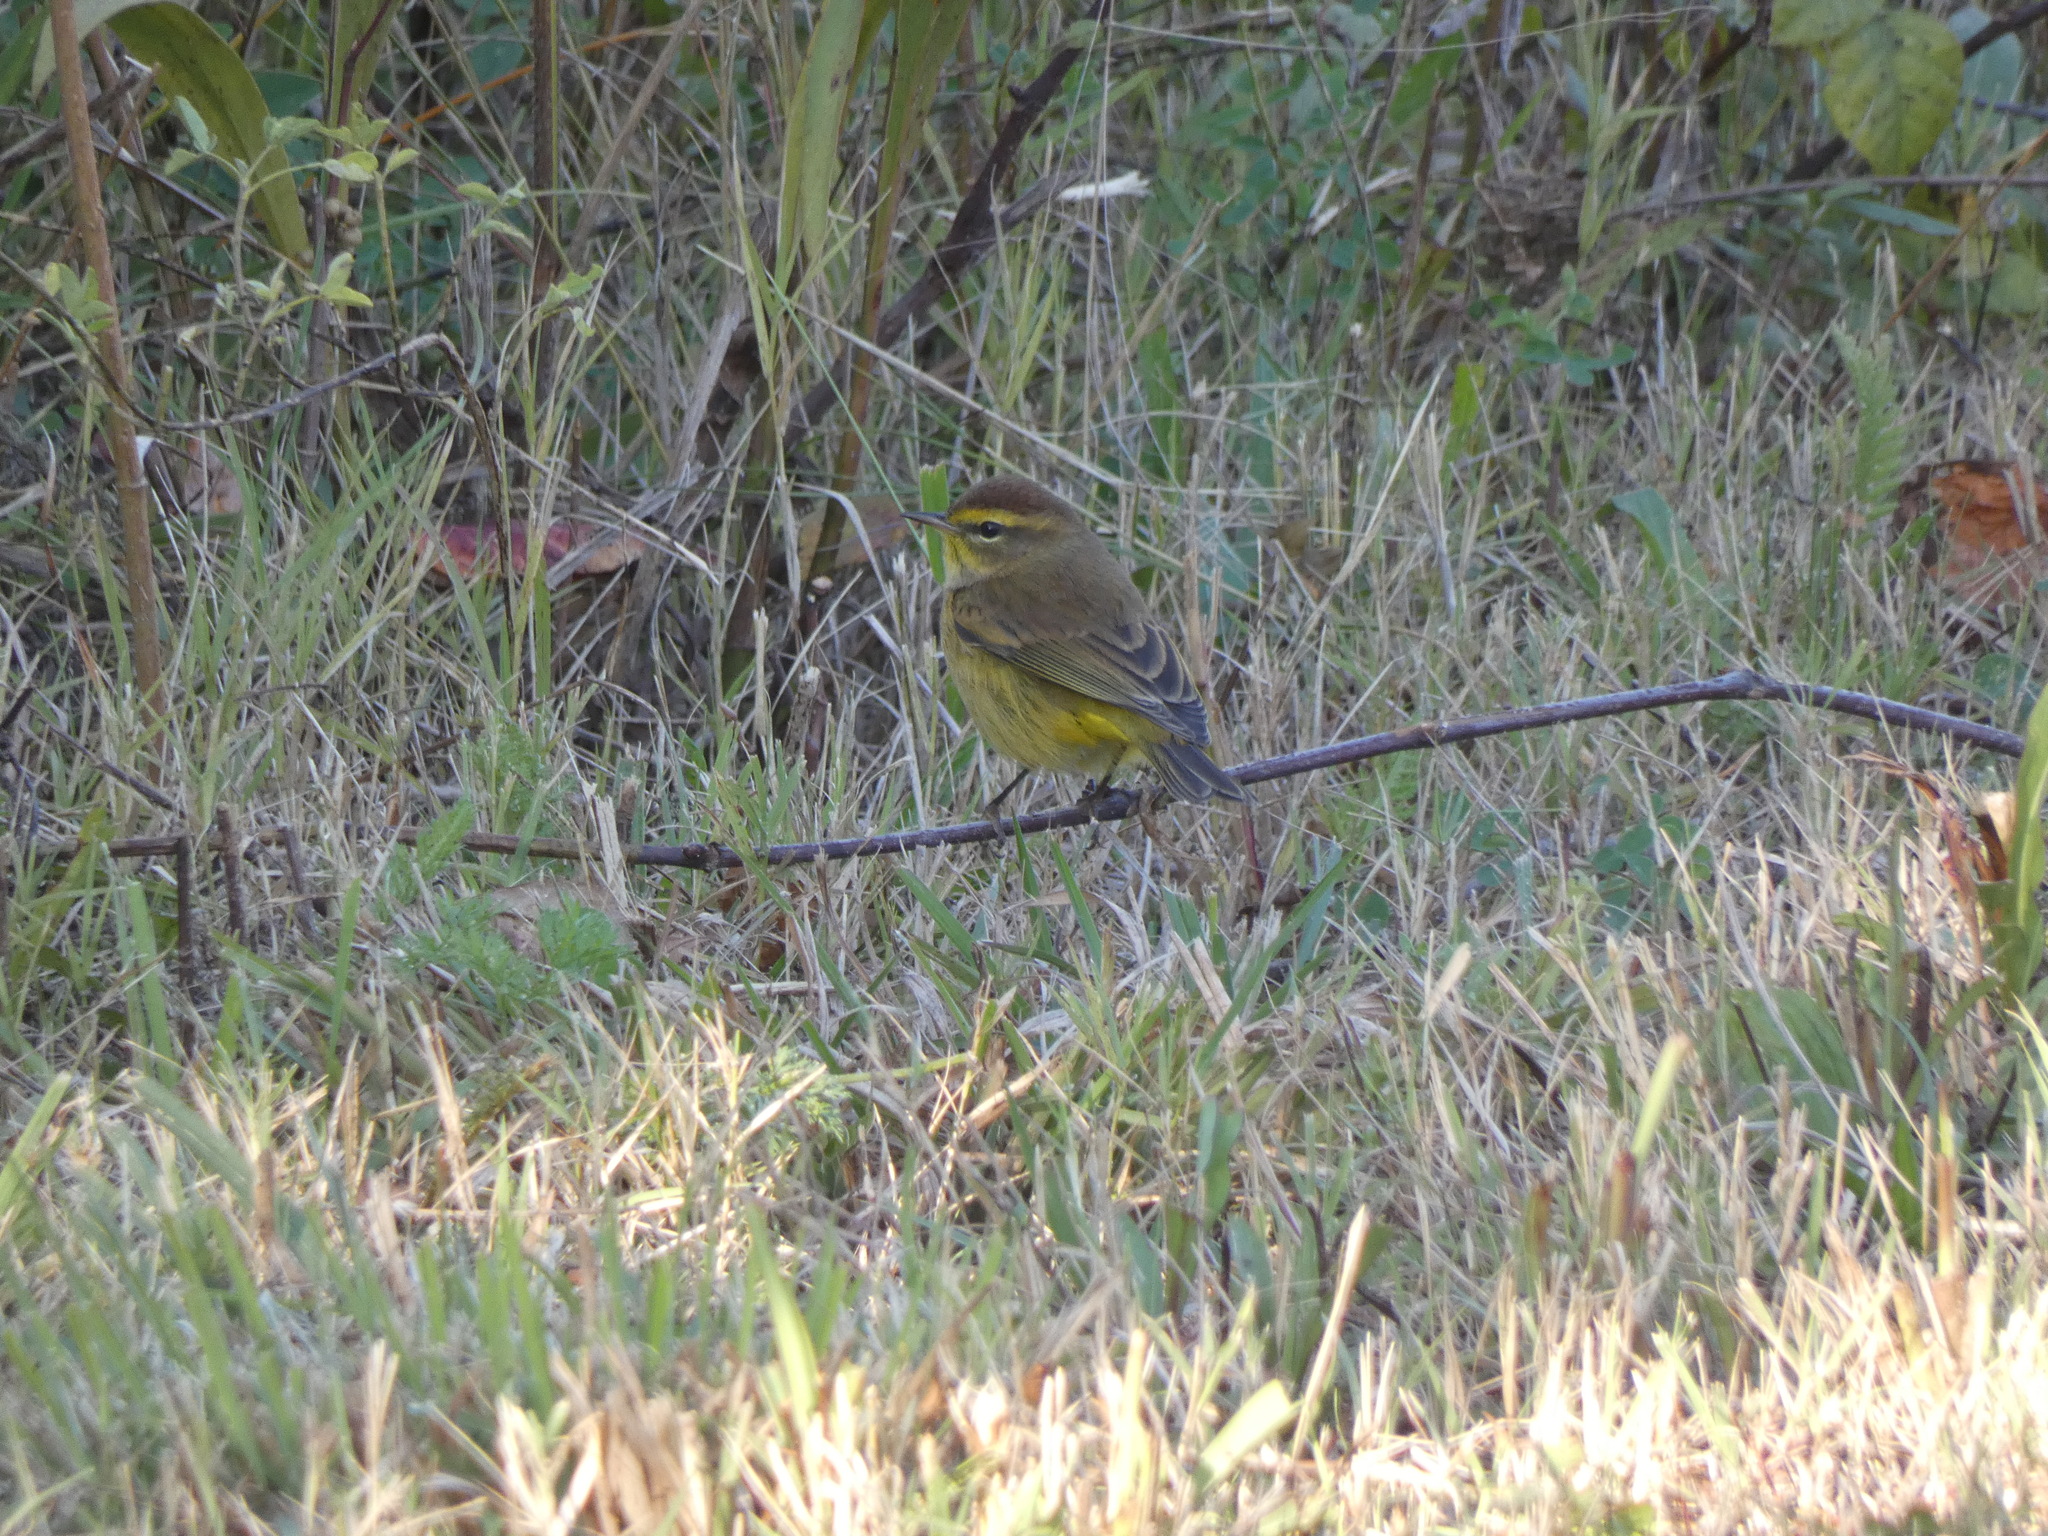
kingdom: Animalia
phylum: Chordata
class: Aves
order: Passeriformes
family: Parulidae
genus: Setophaga
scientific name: Setophaga palmarum
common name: Palm warbler
